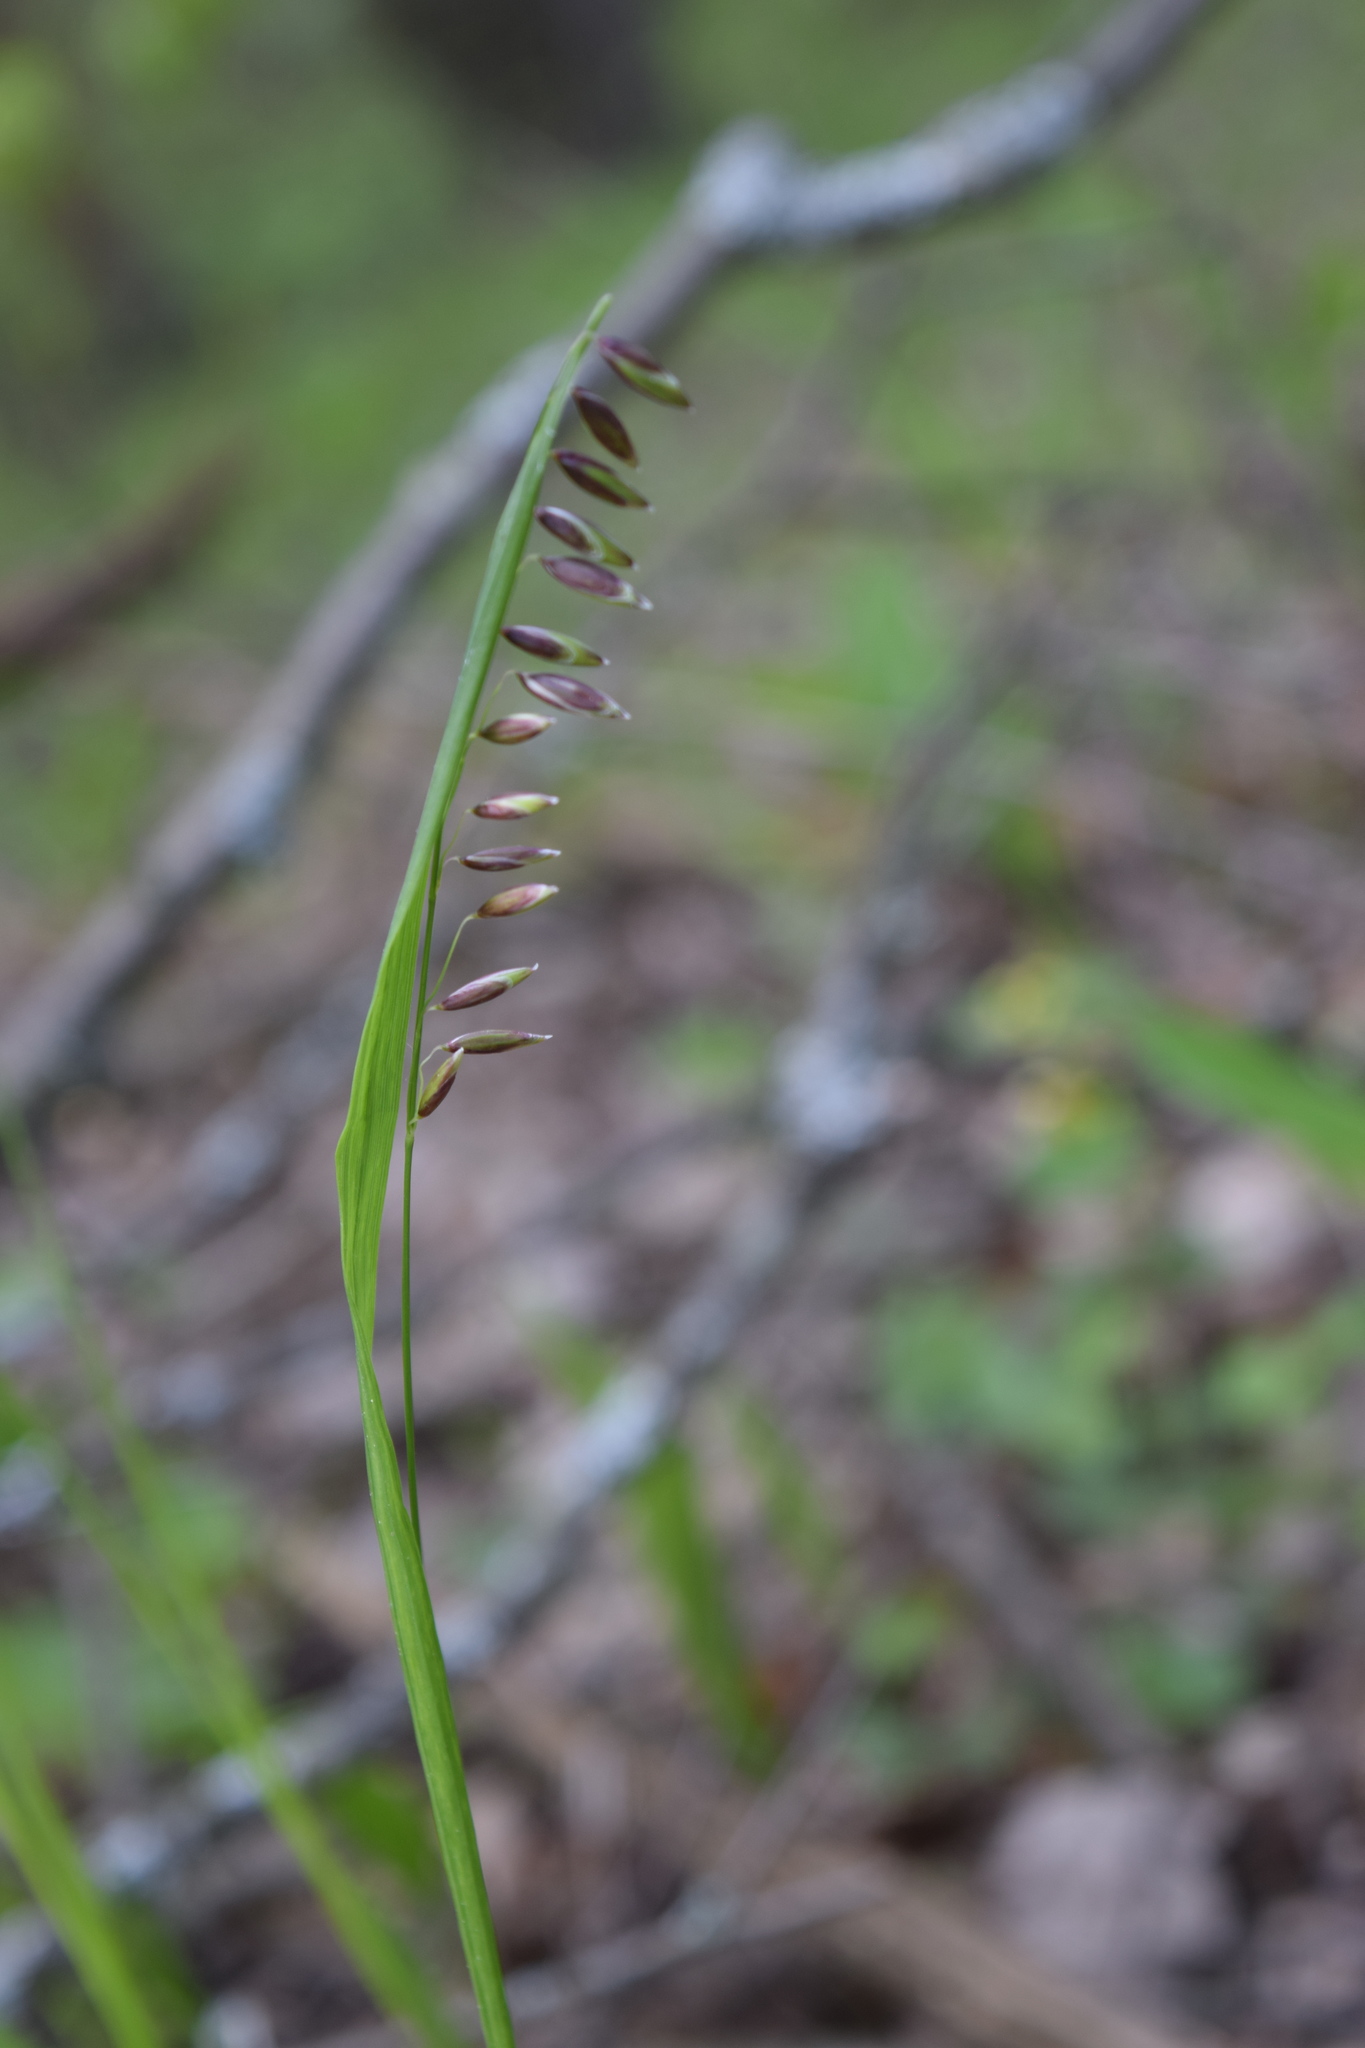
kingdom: Plantae
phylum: Tracheophyta
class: Liliopsida
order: Poales
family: Poaceae
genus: Melica
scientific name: Melica nutans
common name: Mountain melick
